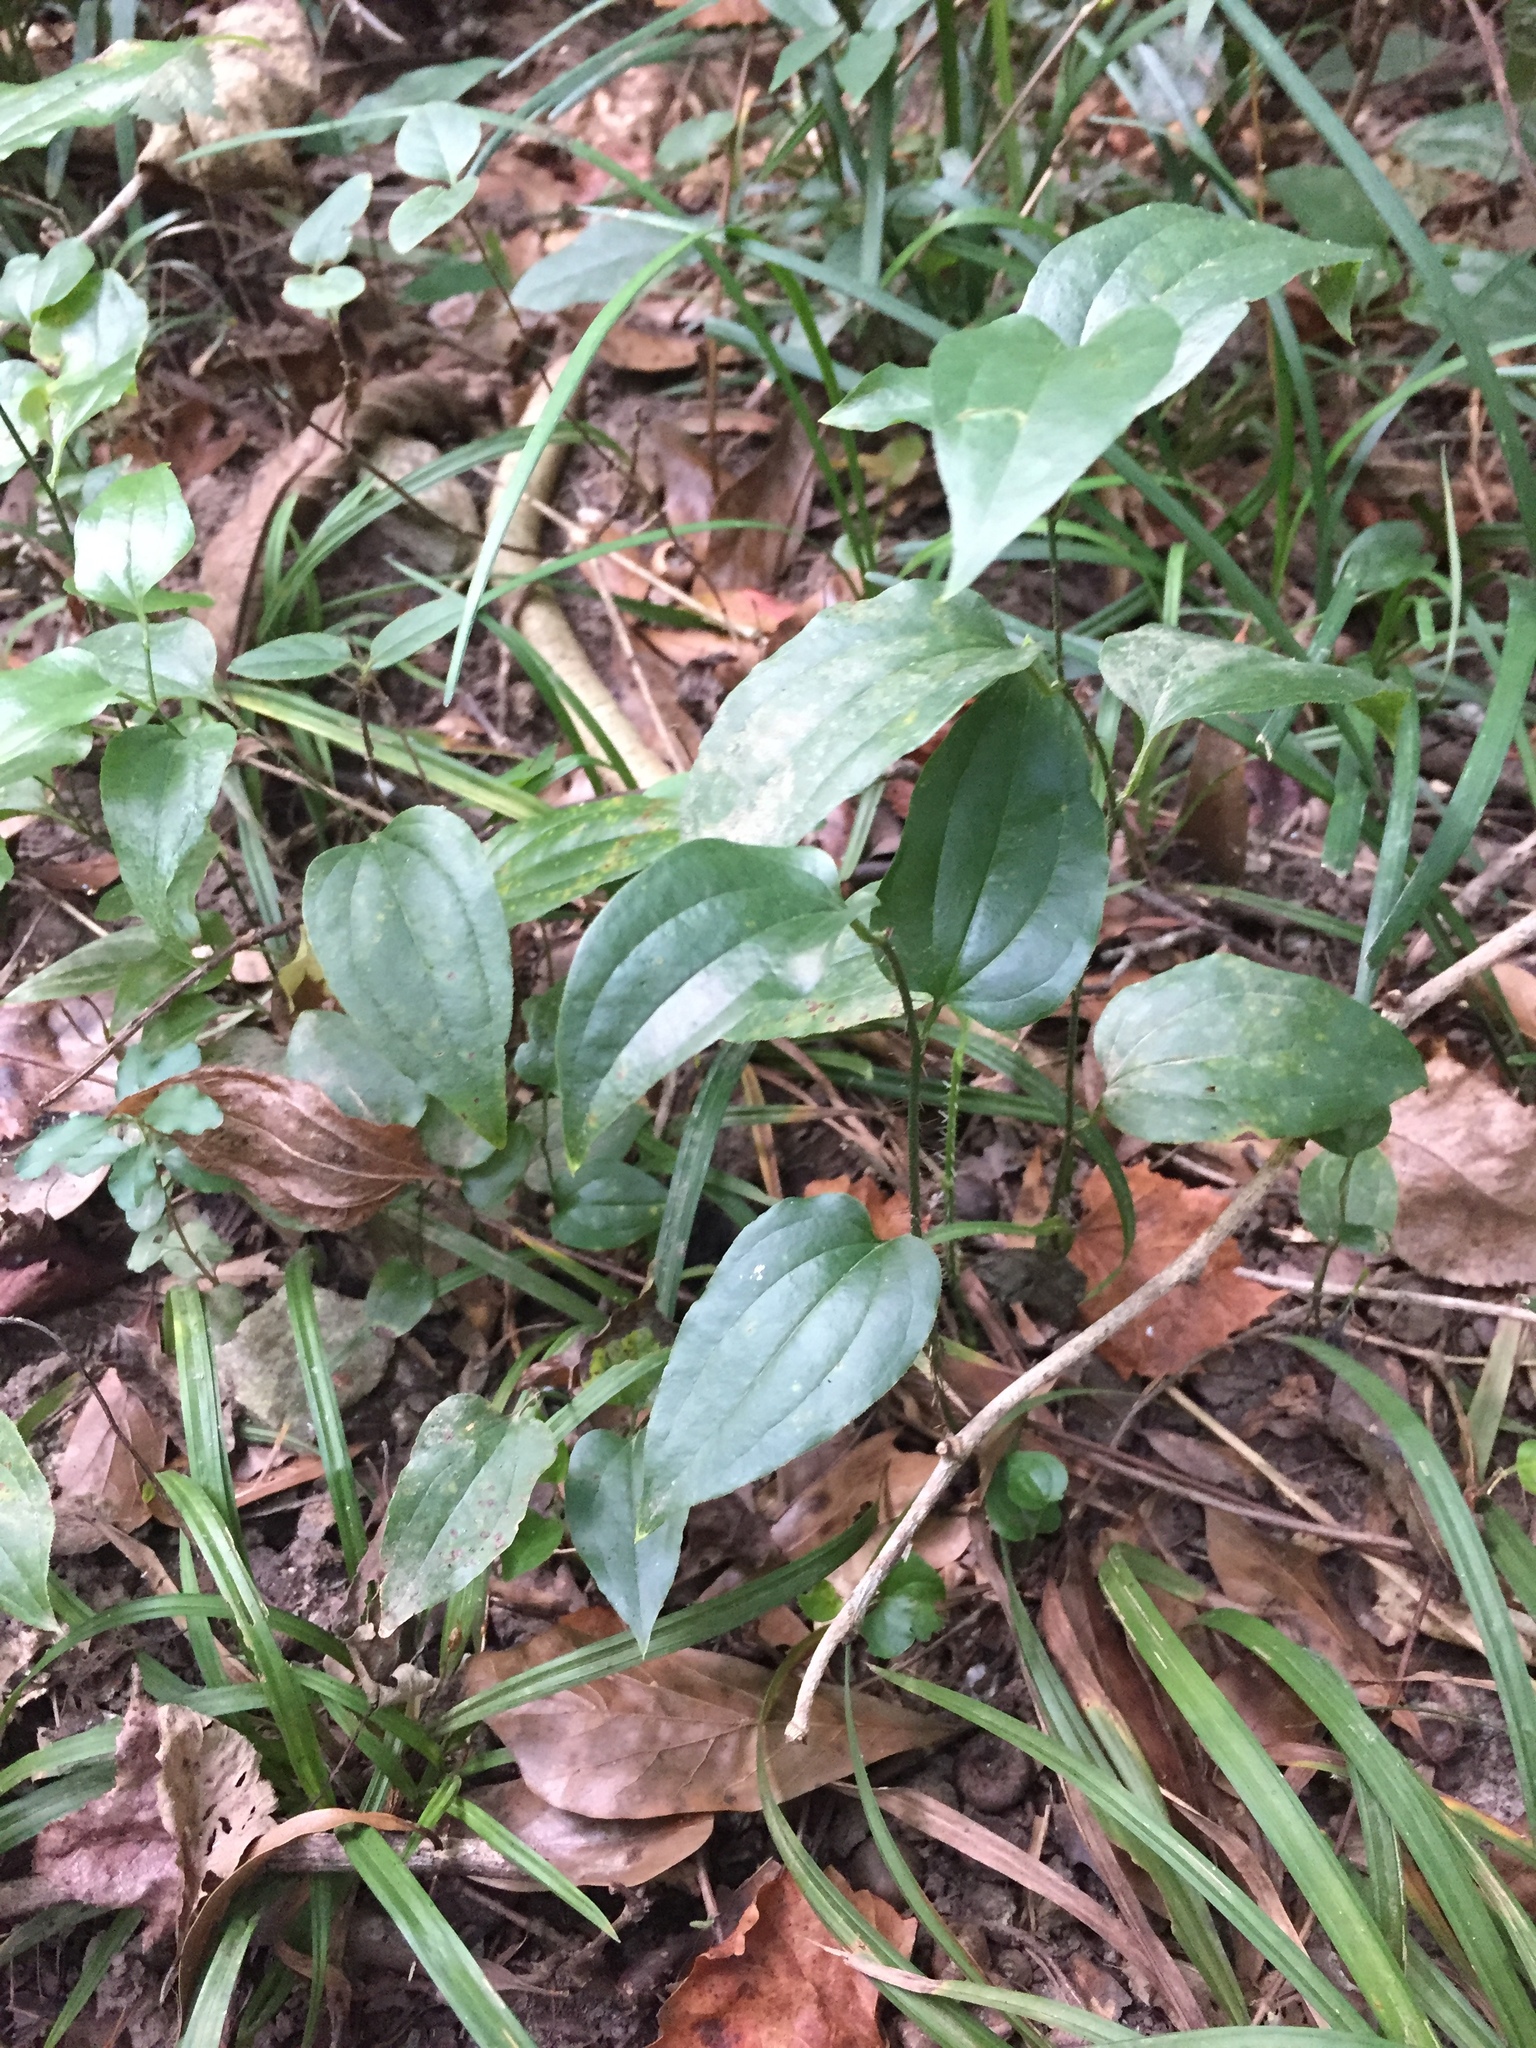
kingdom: Plantae
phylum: Tracheophyta
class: Liliopsida
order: Liliales
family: Smilacaceae
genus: Smilax
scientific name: Smilax tamnoides
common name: Hellfetter
